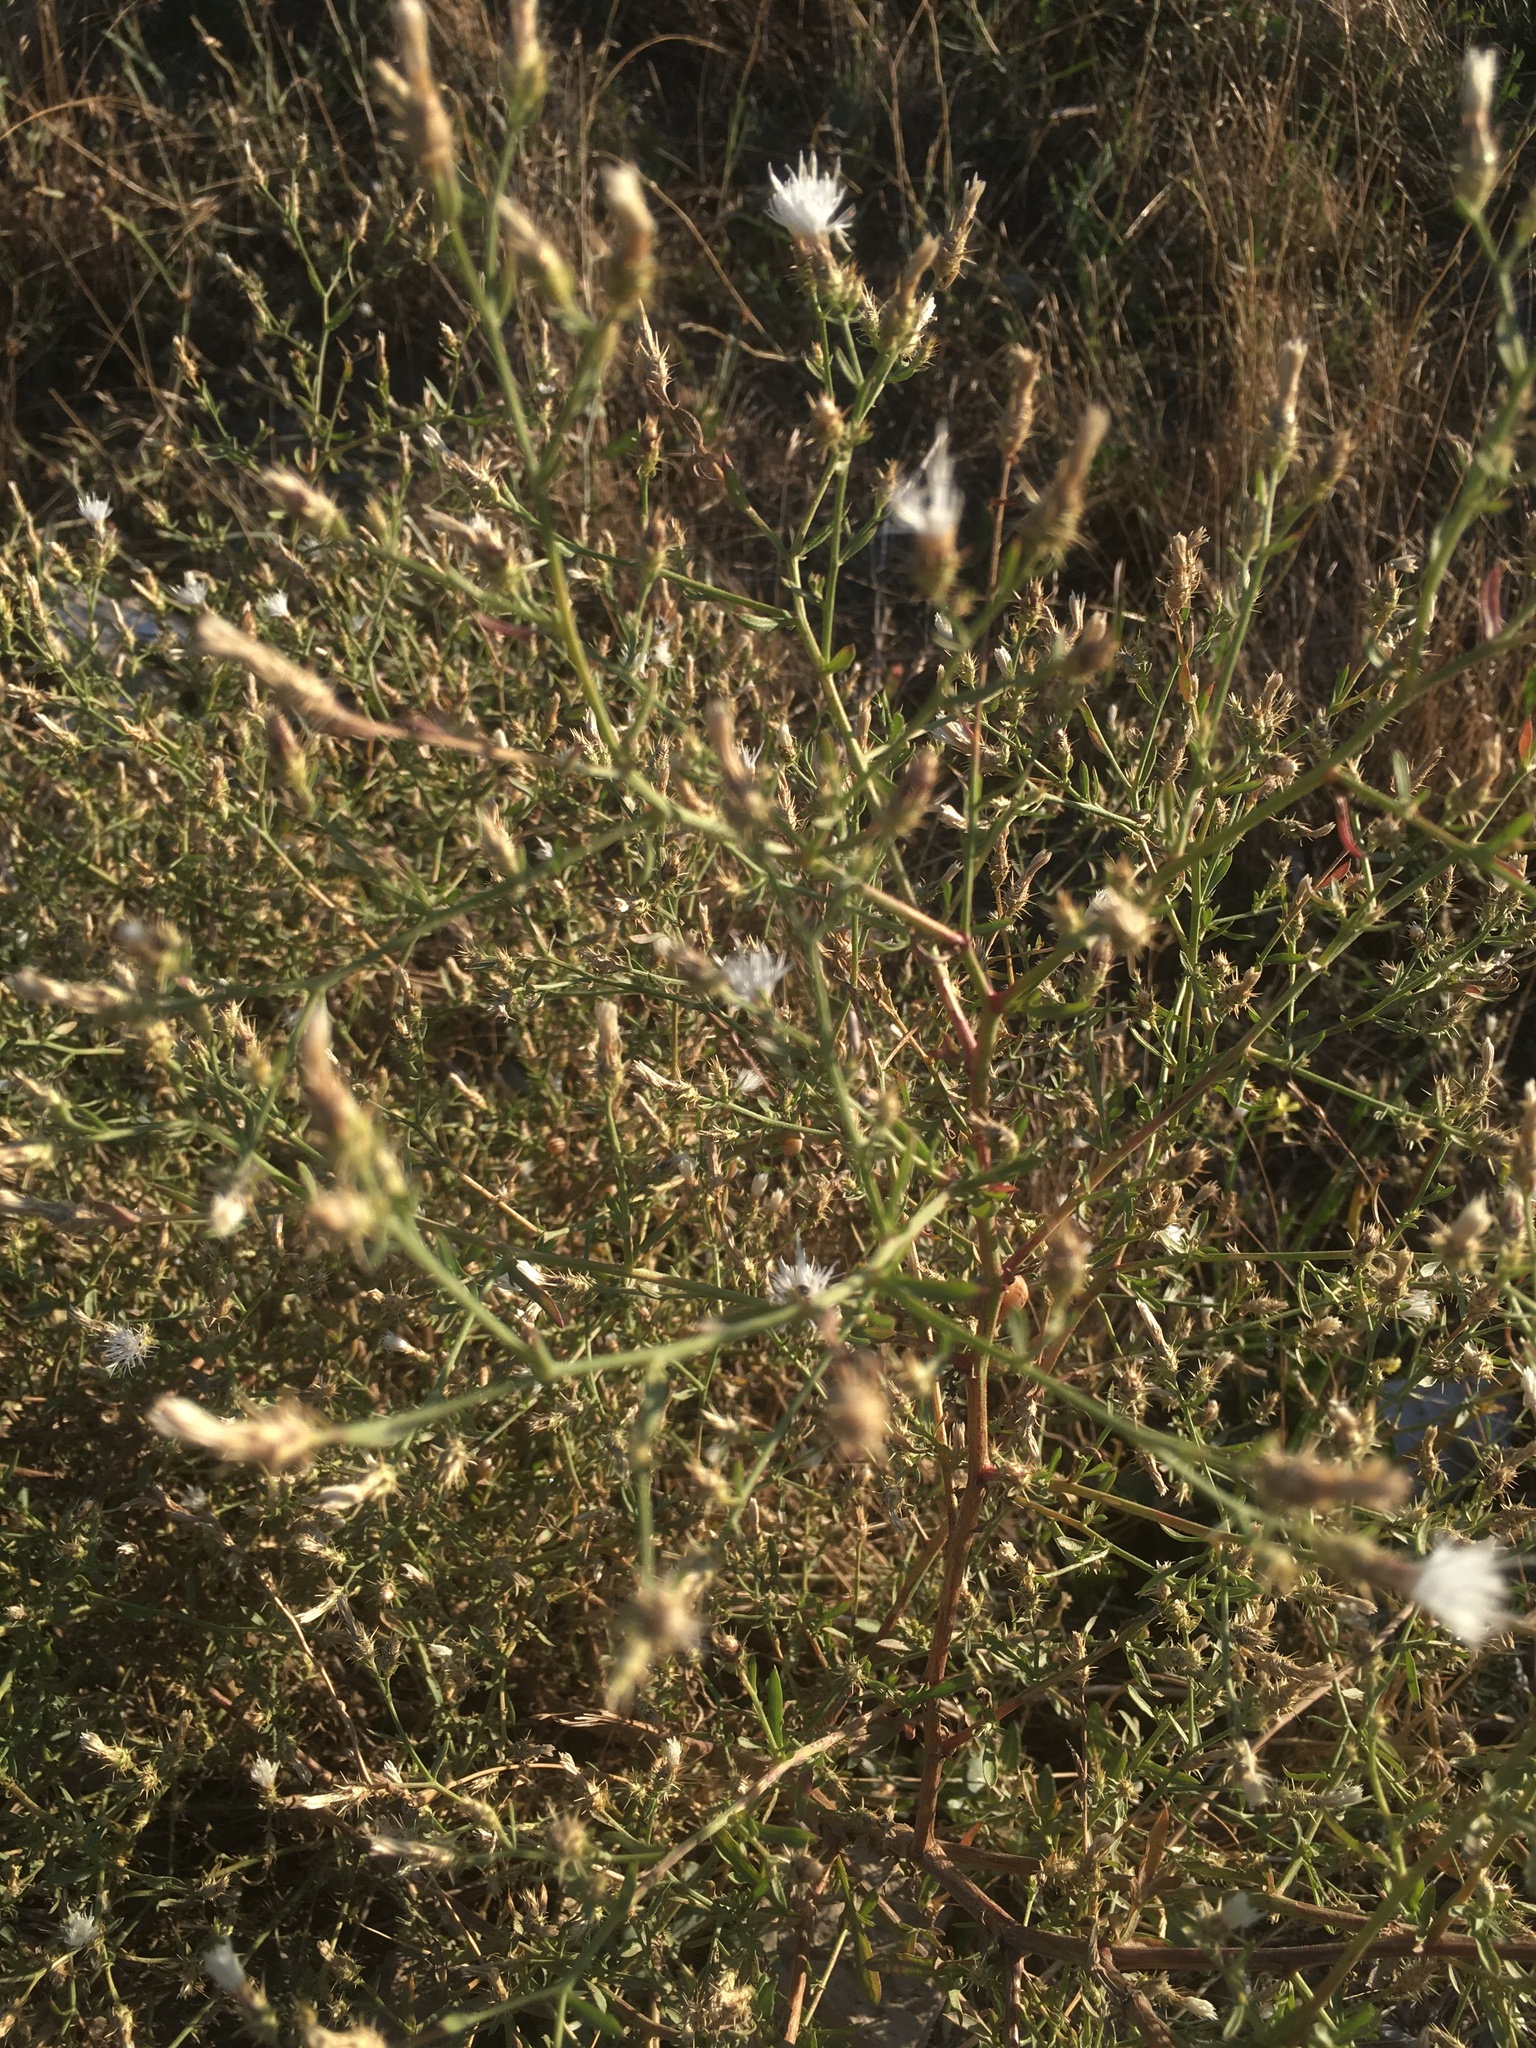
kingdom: Plantae
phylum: Tracheophyta
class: Magnoliopsida
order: Asterales
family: Asteraceae
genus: Centaurea
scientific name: Centaurea diffusa
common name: Diffuse knapweed
